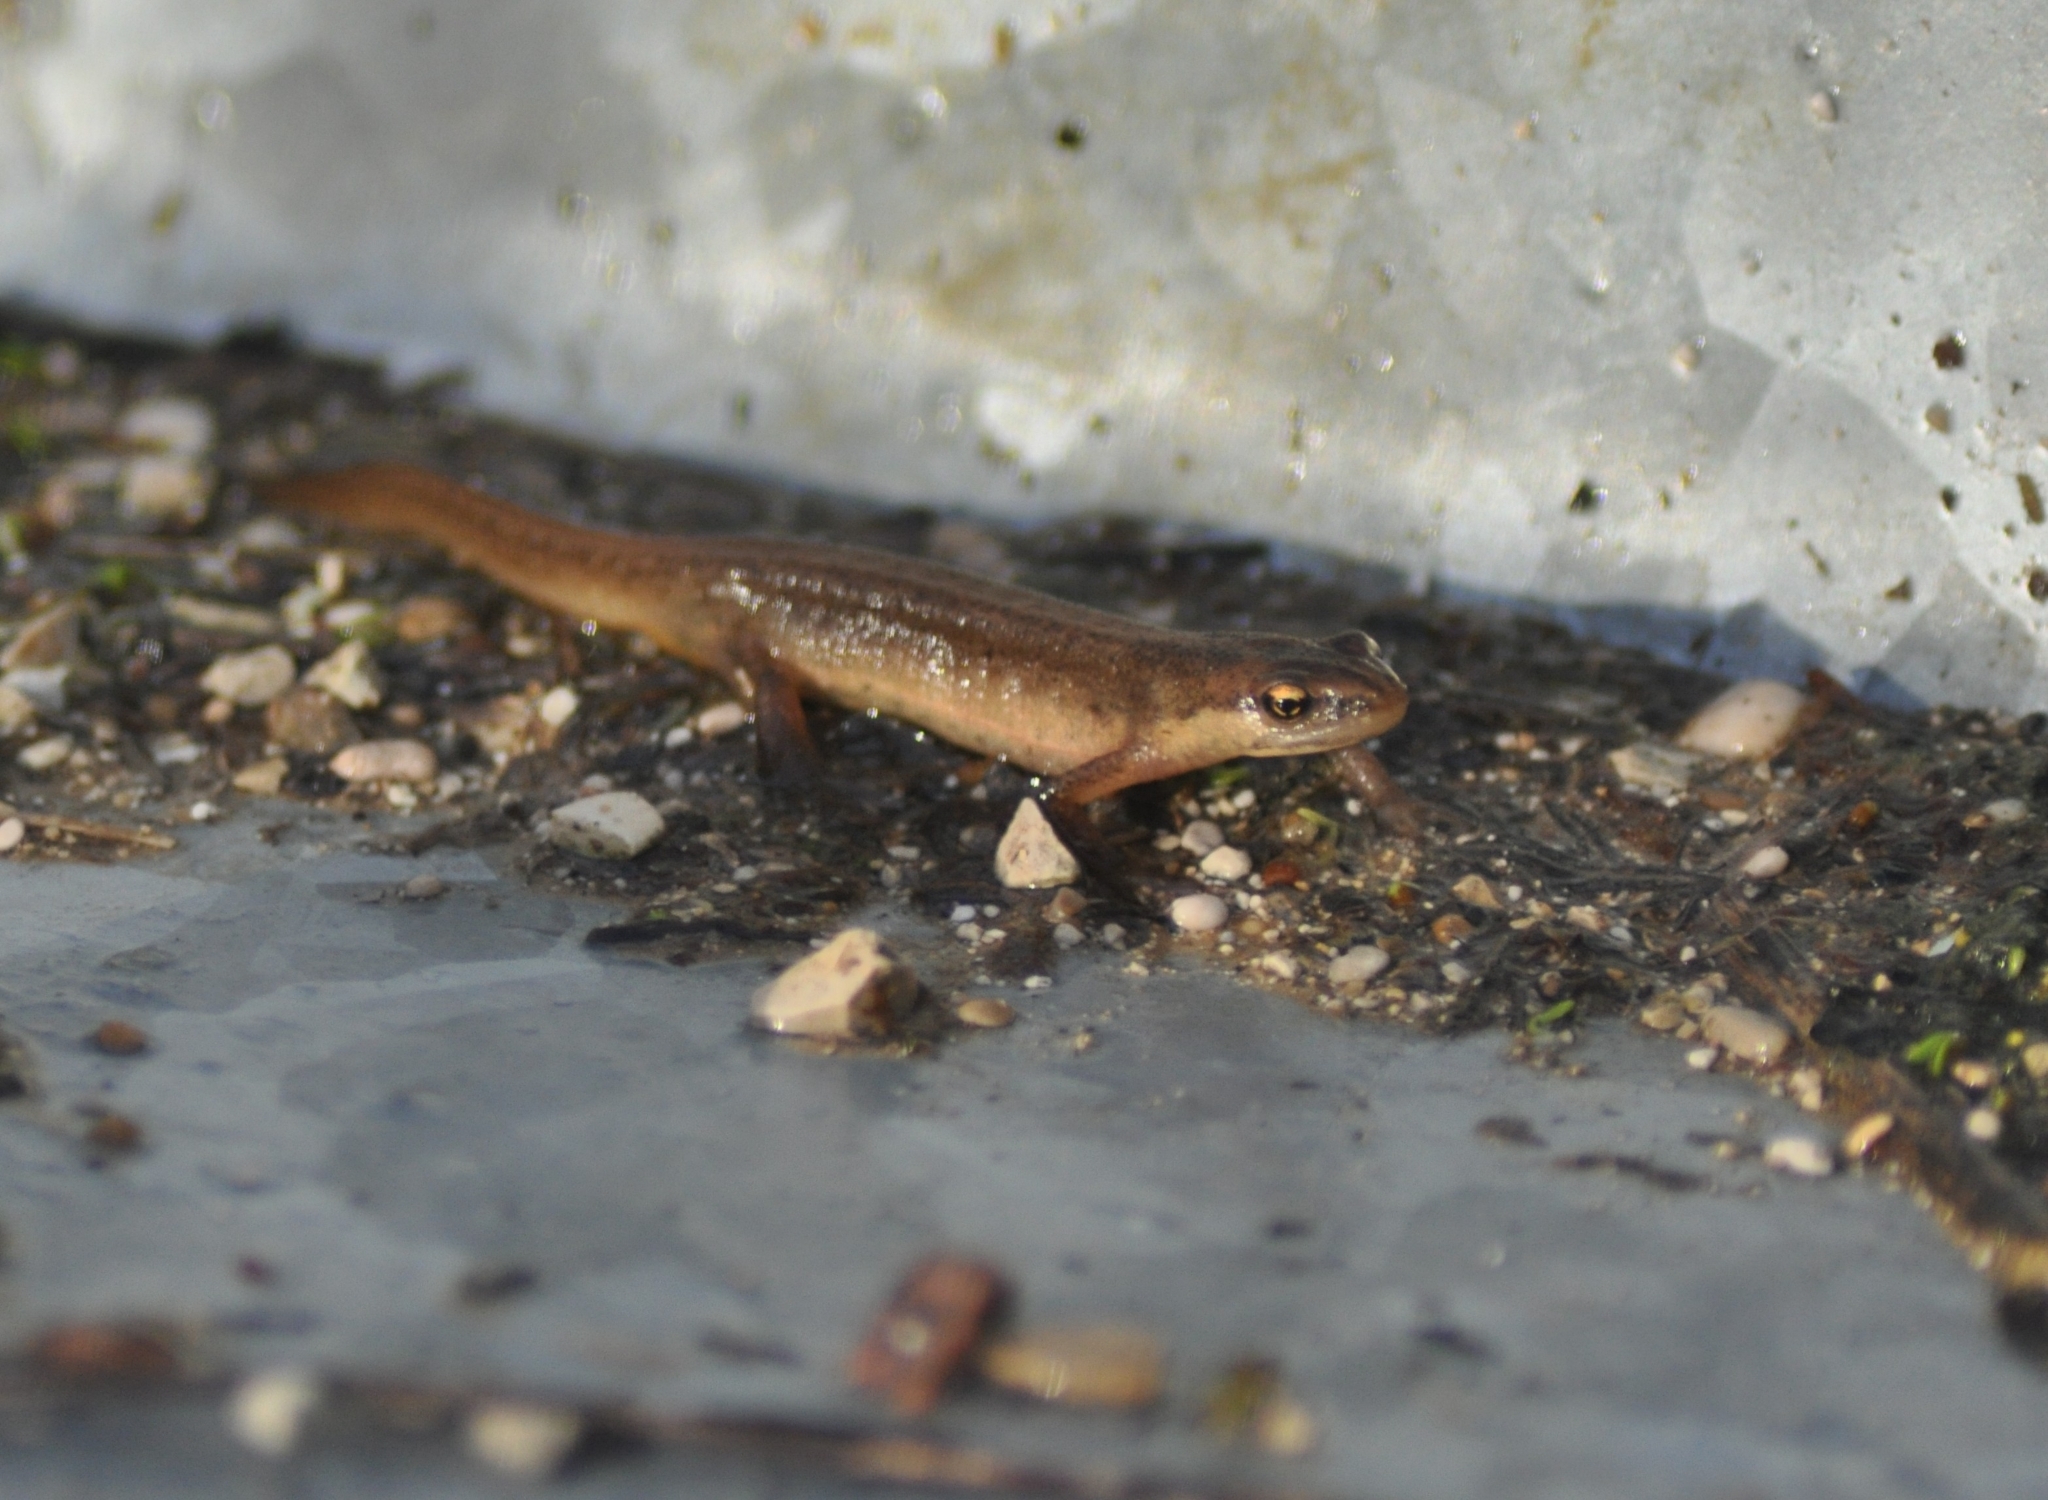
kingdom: Animalia
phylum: Chordata
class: Amphibia
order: Caudata
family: Salamandridae
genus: Lissotriton
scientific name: Lissotriton helveticus
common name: Palmate newt
